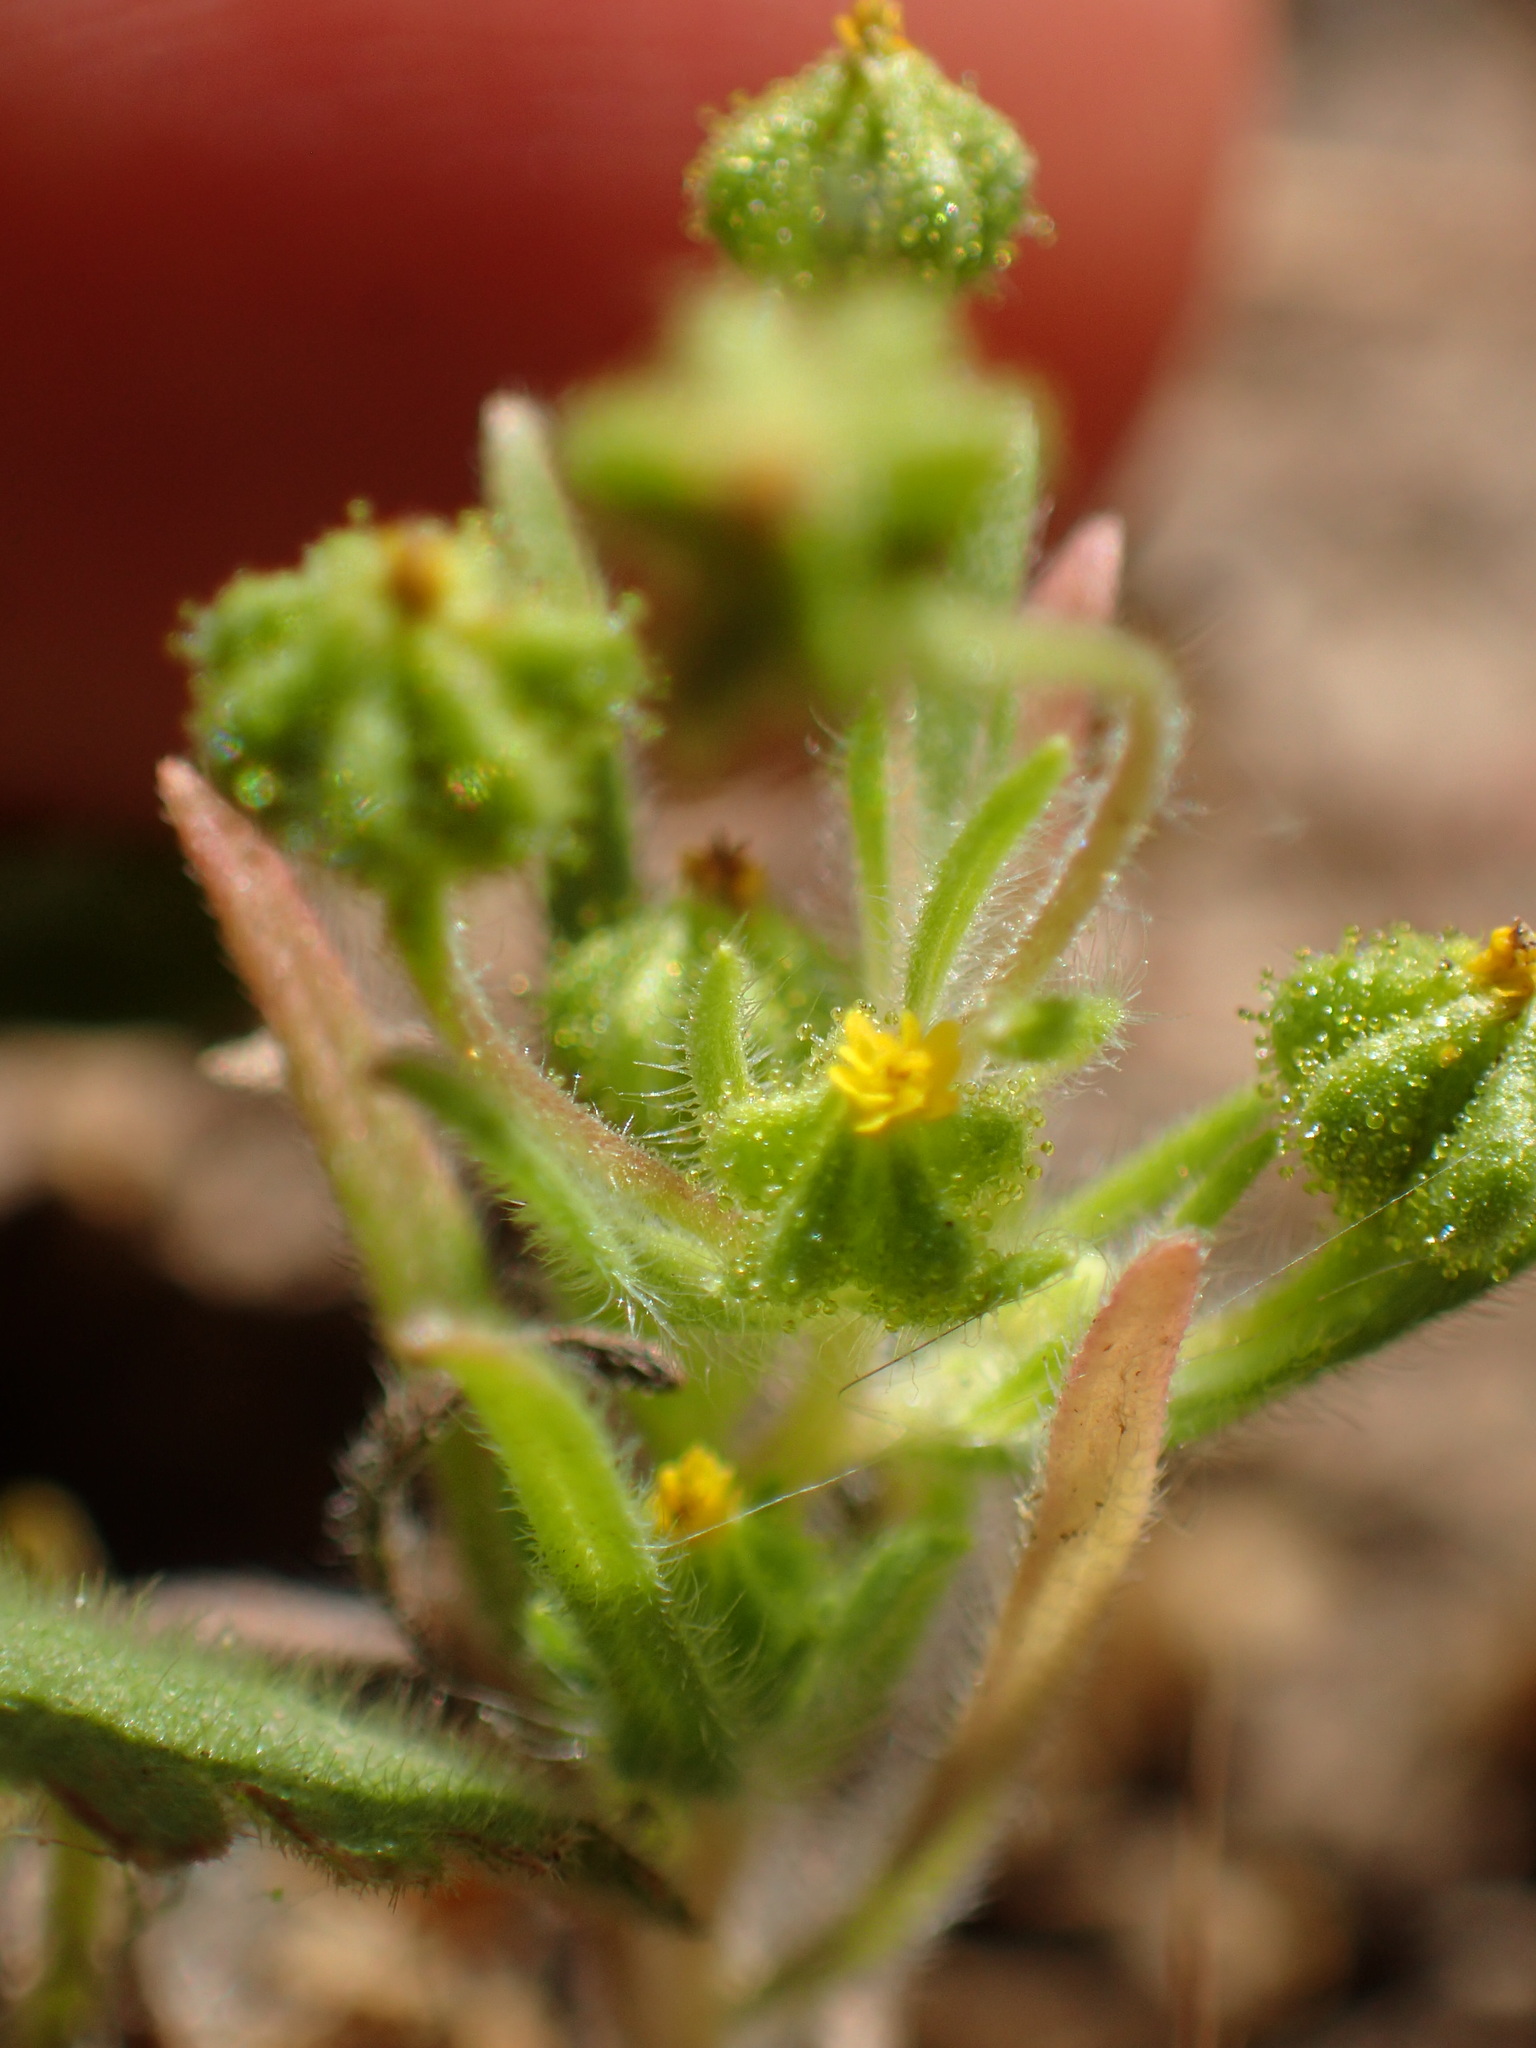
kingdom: Plantae
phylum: Tracheophyta
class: Magnoliopsida
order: Asterales
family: Asteraceae
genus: Madia
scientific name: Madia exigua
